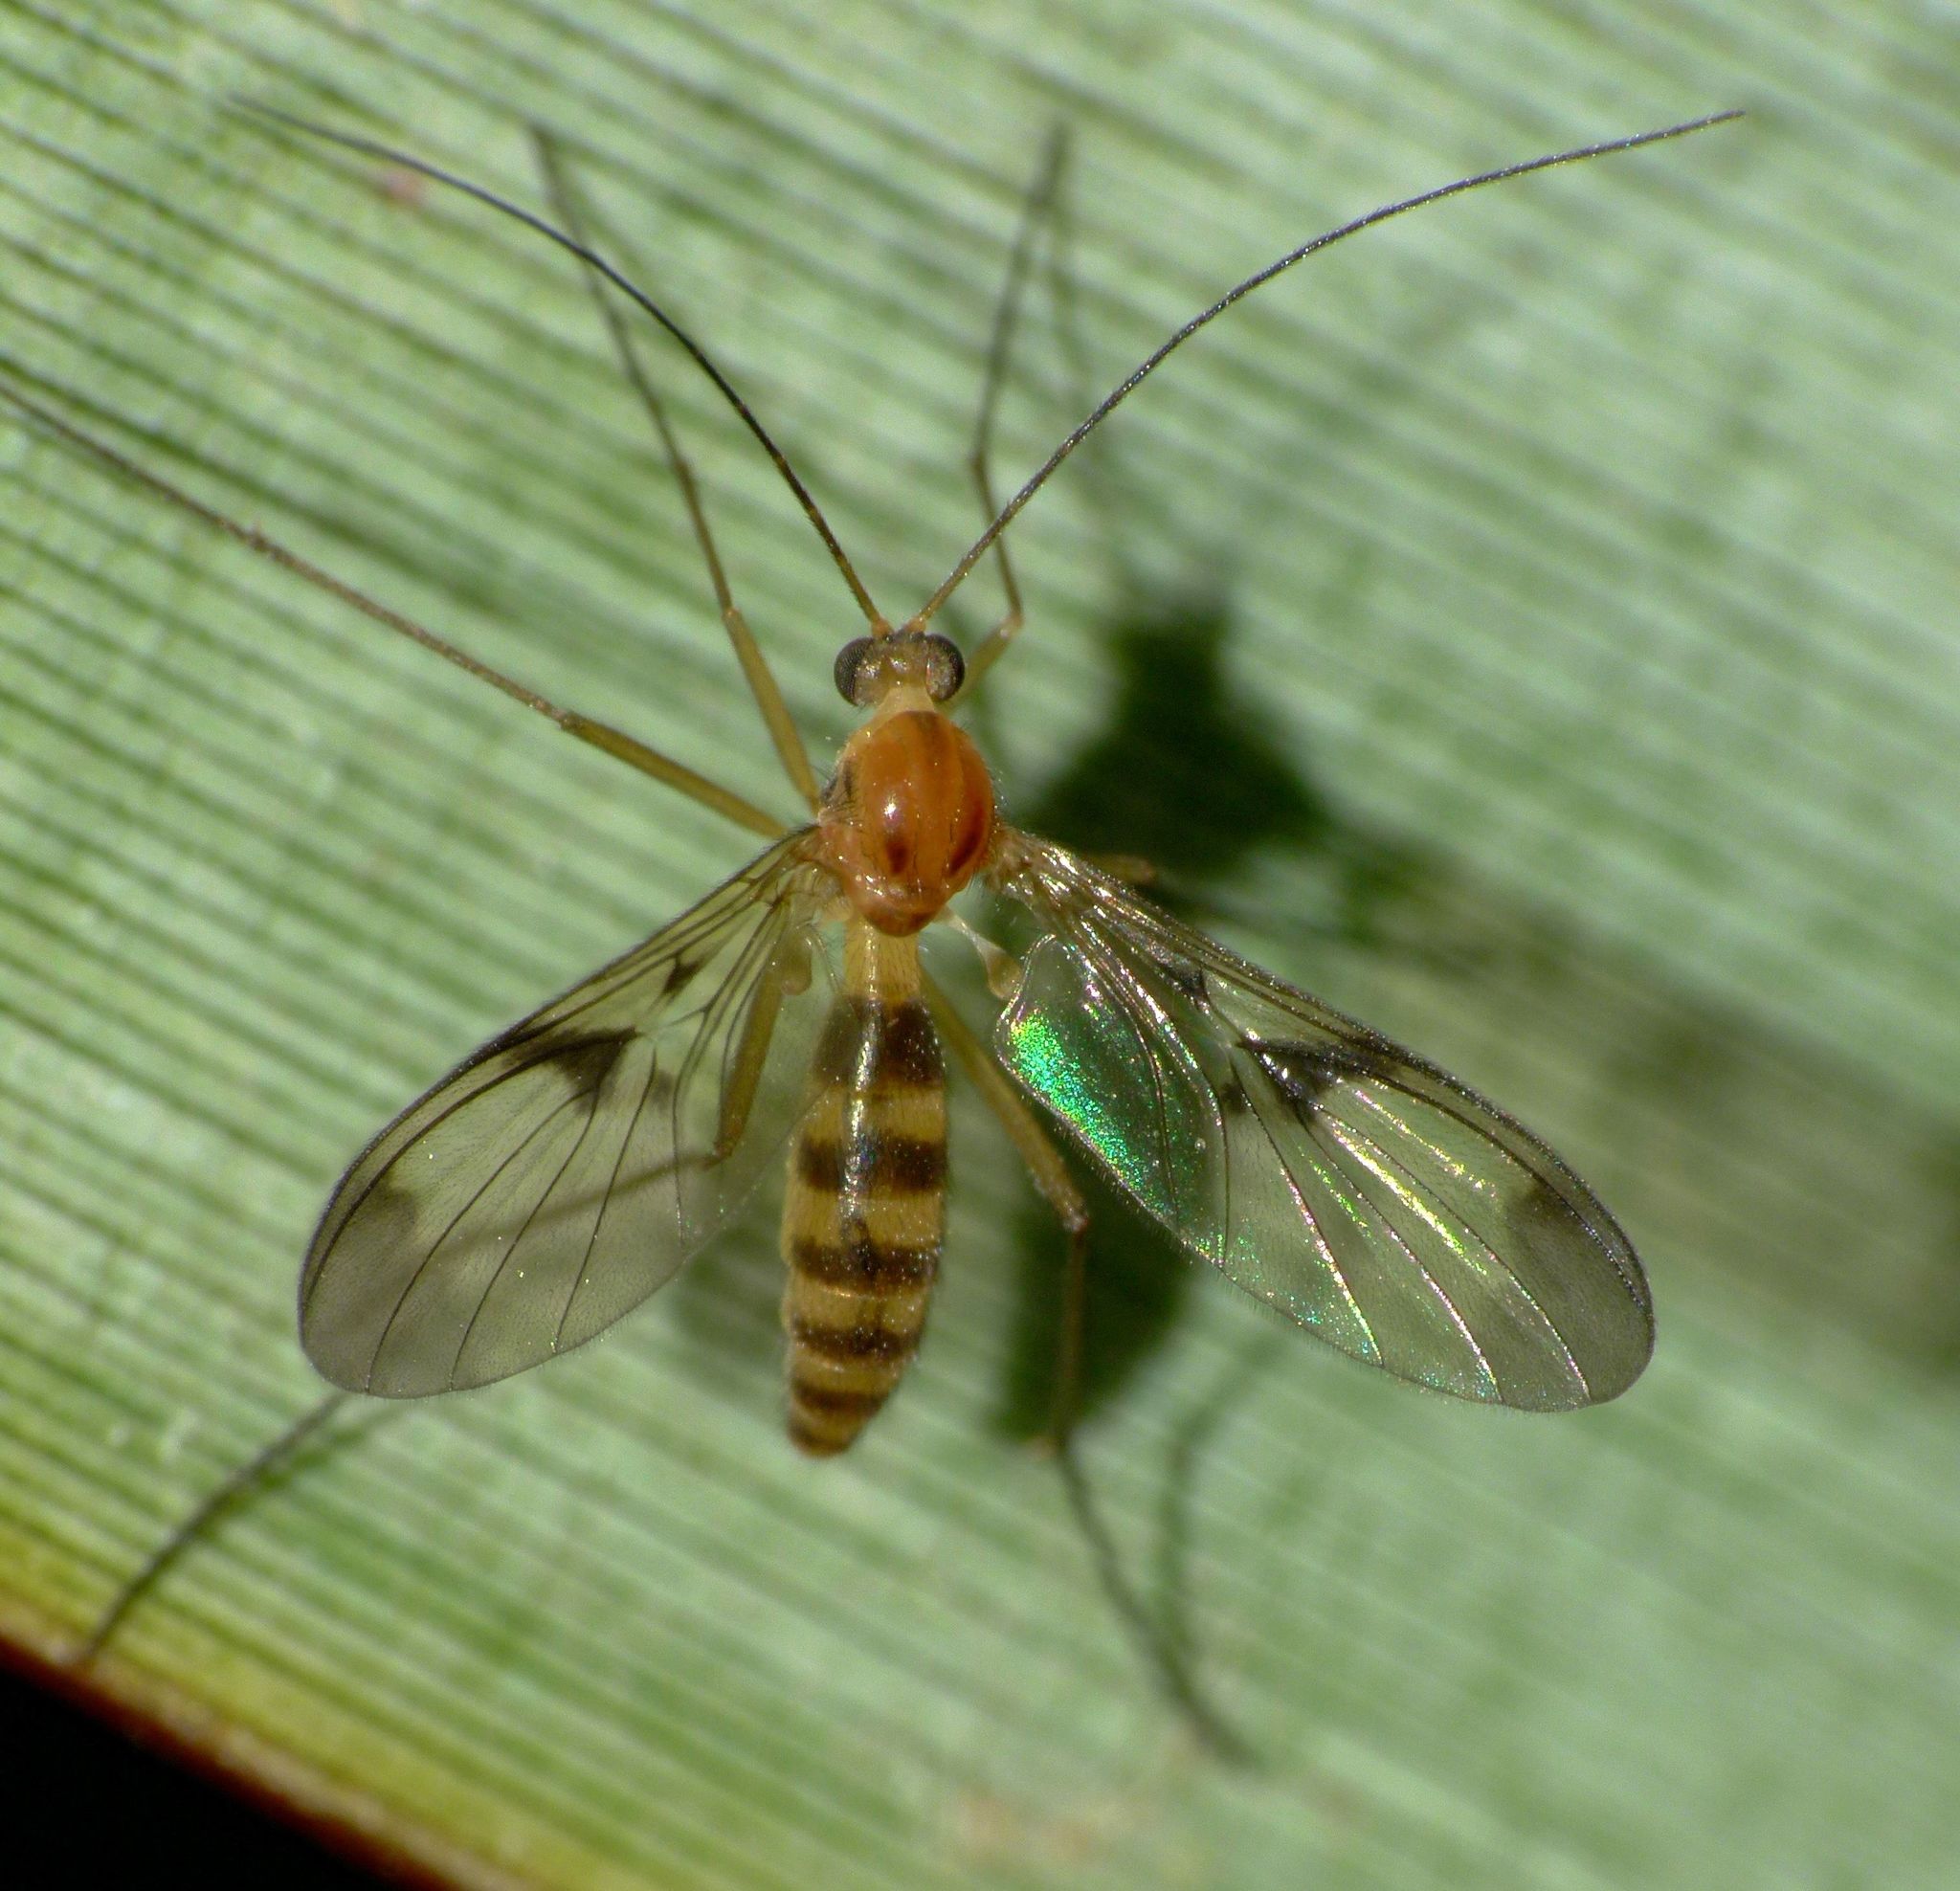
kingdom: Animalia
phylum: Arthropoda
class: Insecta
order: Diptera
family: Keroplatidae
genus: Macrocera
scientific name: Macrocera scoparia
